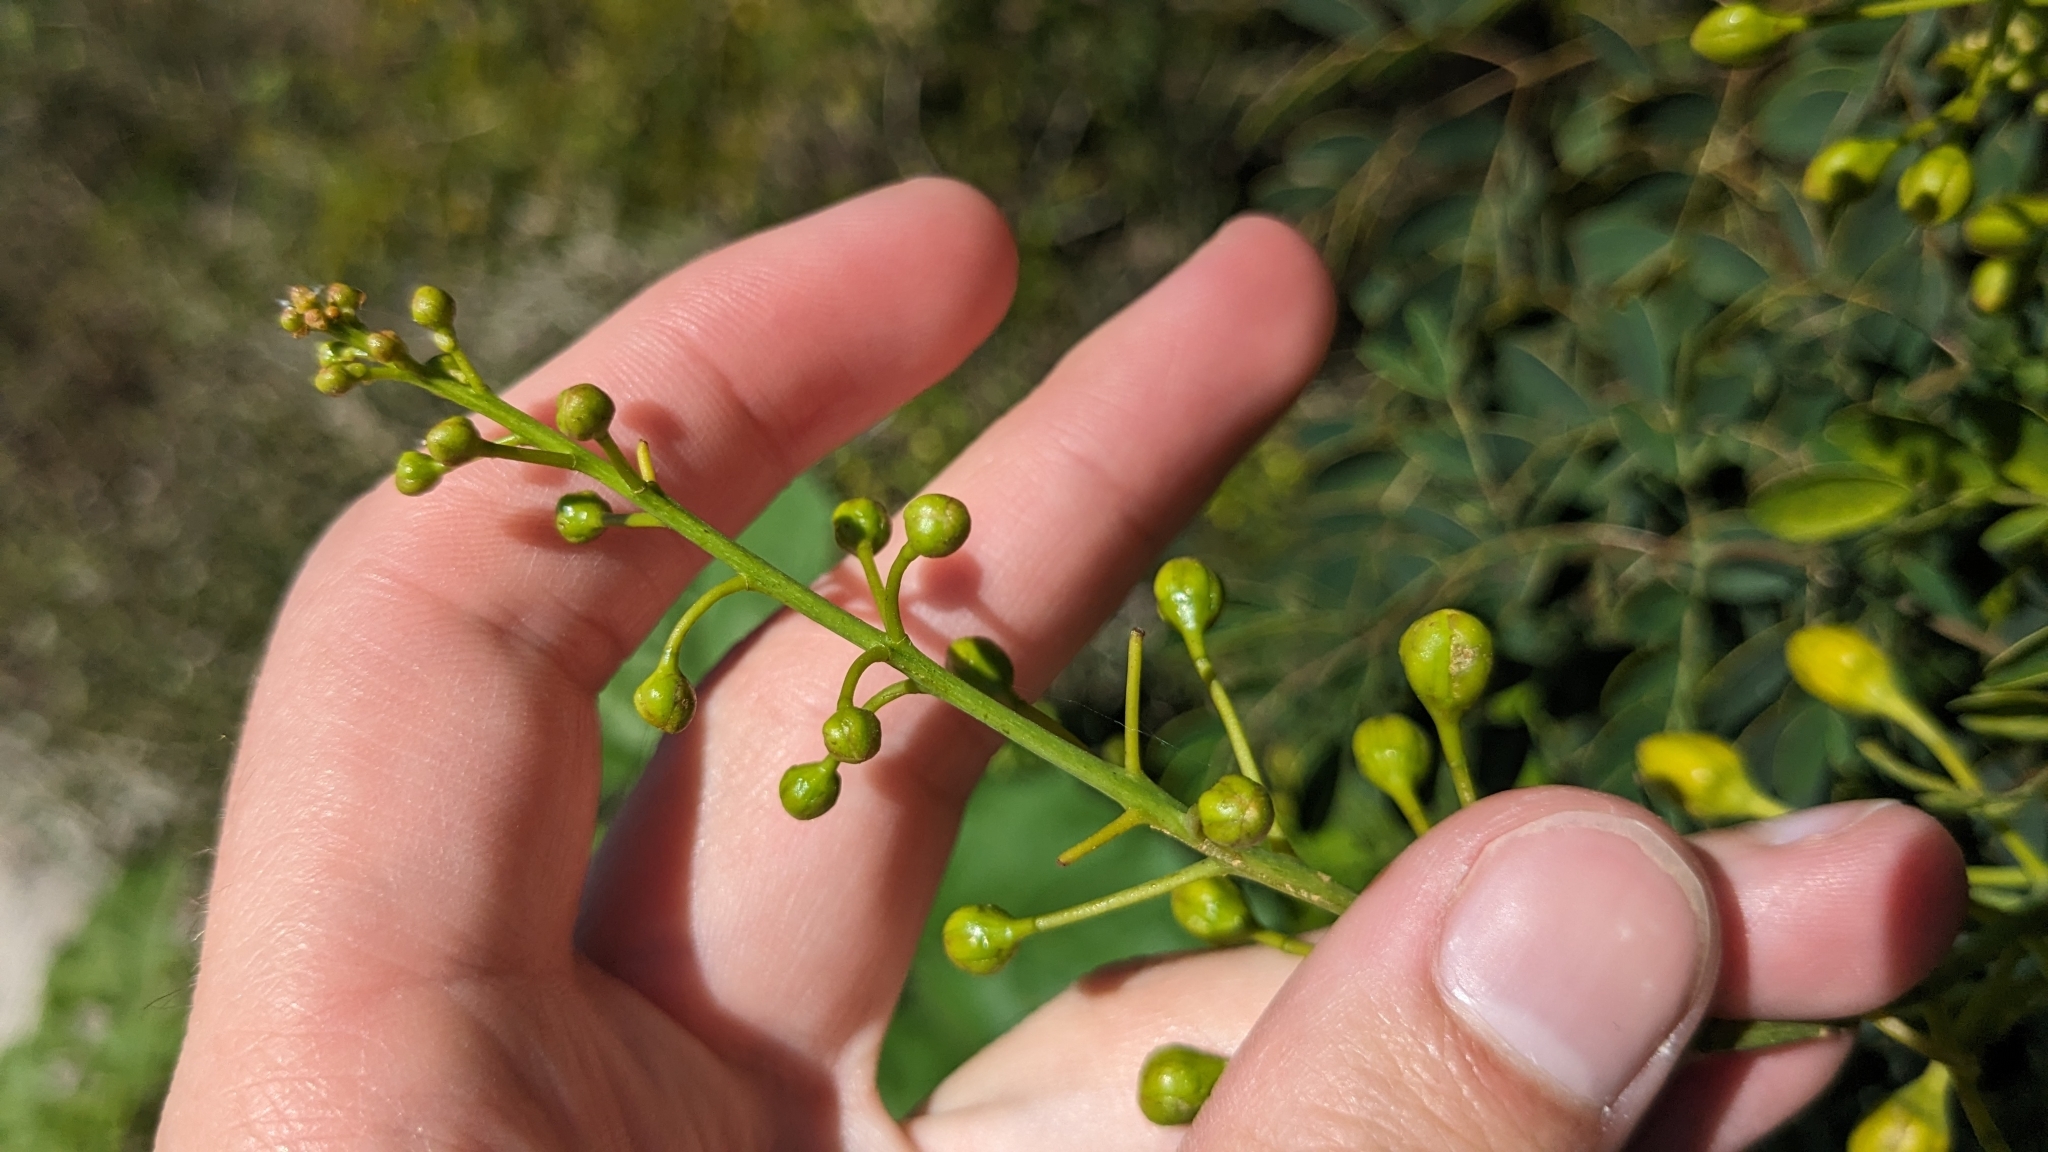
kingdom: Plantae
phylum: Tracheophyta
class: Magnoliopsida
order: Fabales
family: Fabaceae
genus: Erythrostemon
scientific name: Erythrostemon mexicanus
